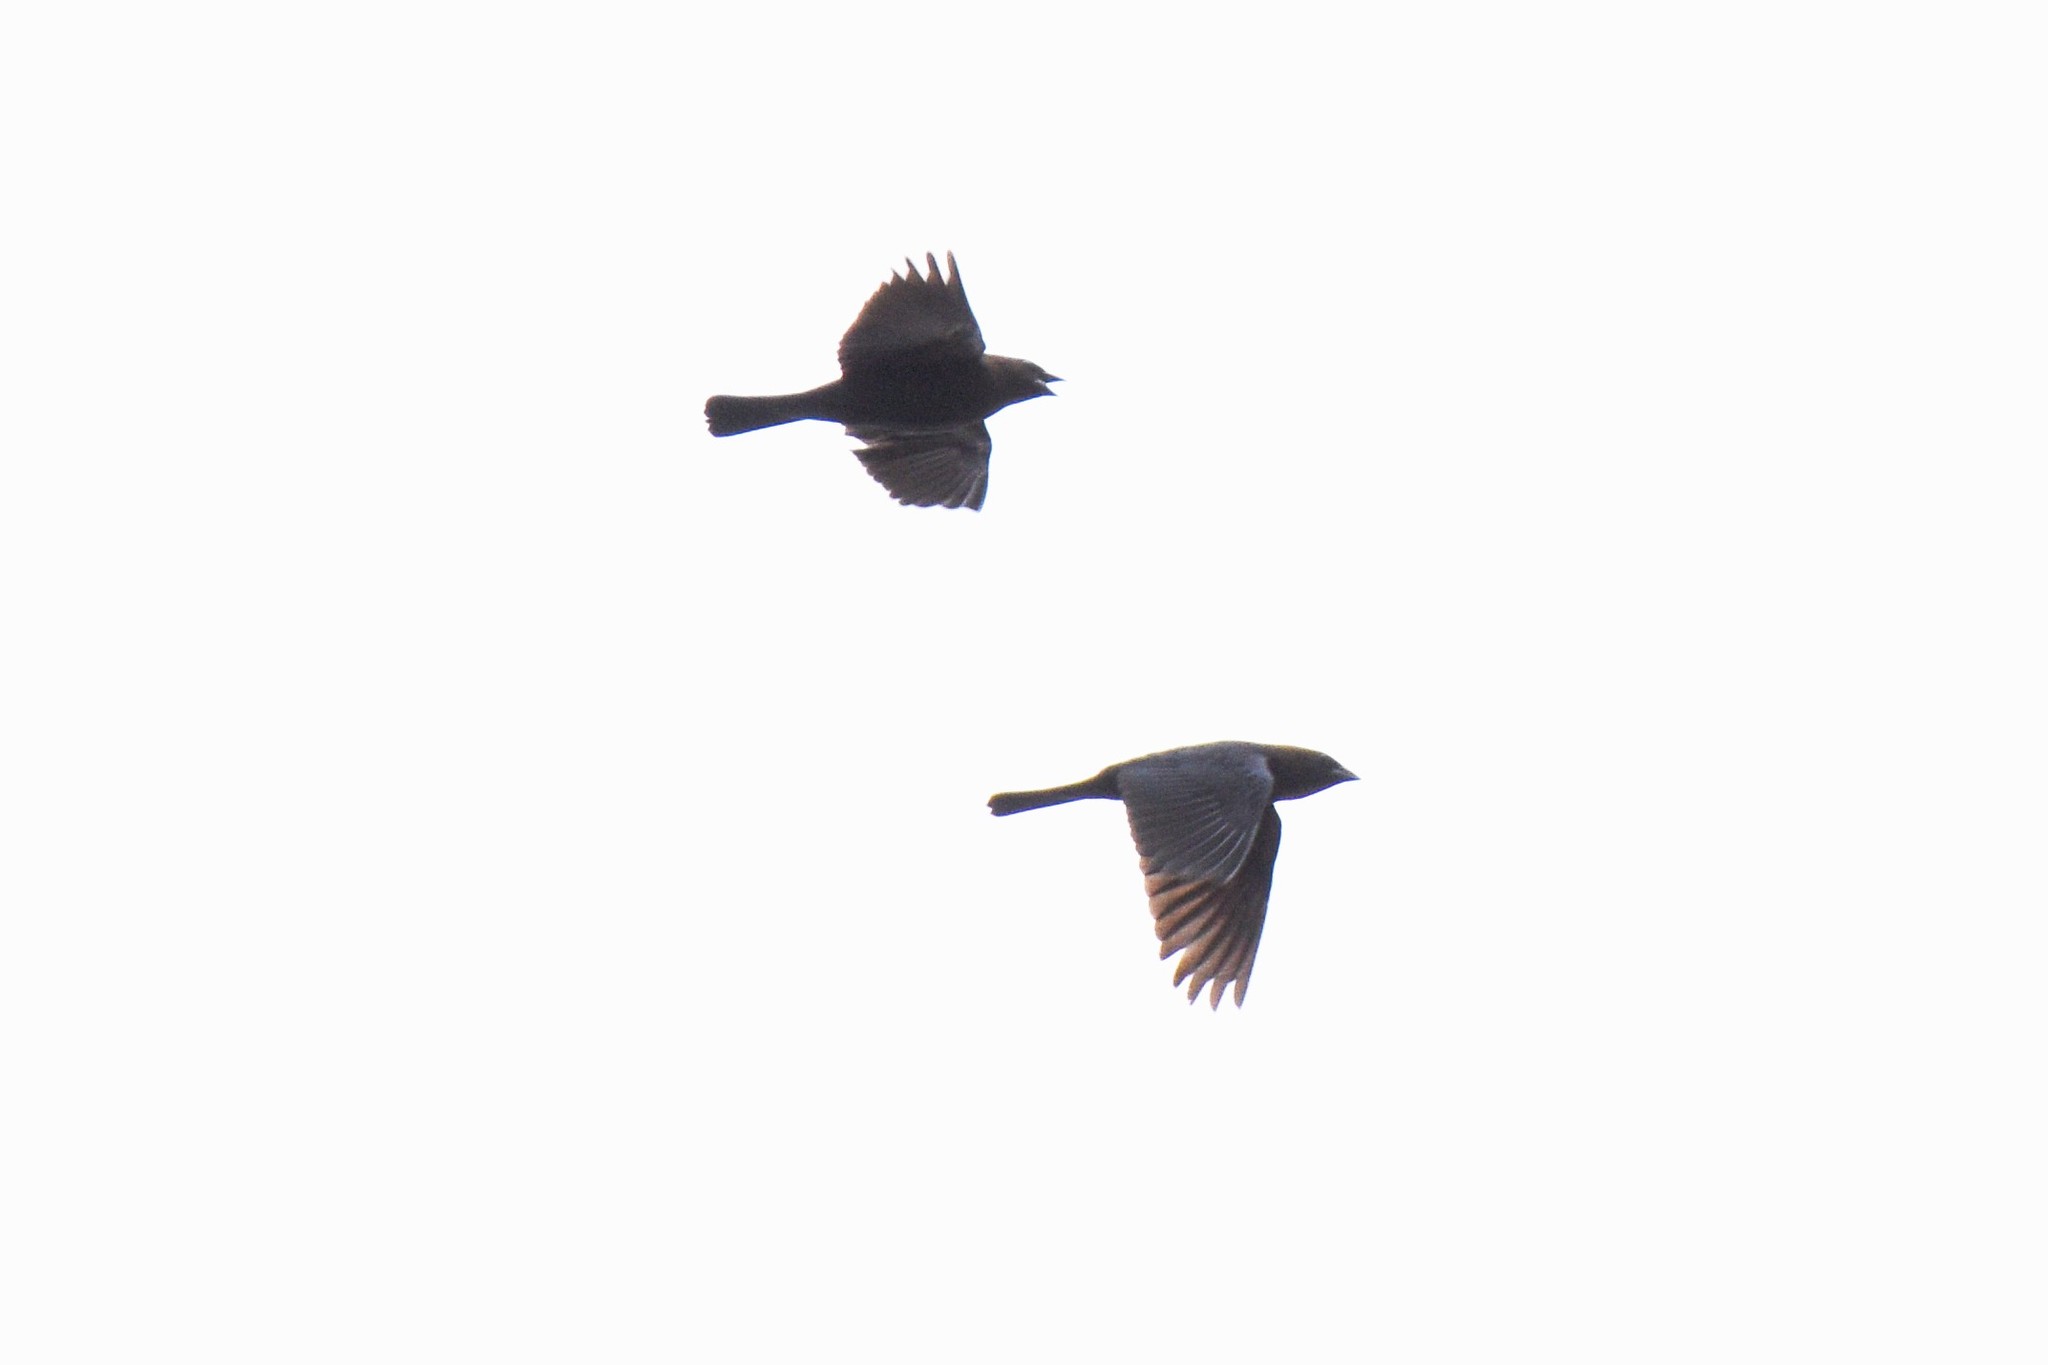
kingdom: Animalia
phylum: Chordata
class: Aves
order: Passeriformes
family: Icteridae
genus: Molothrus
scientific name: Molothrus ater
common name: Brown-headed cowbird
